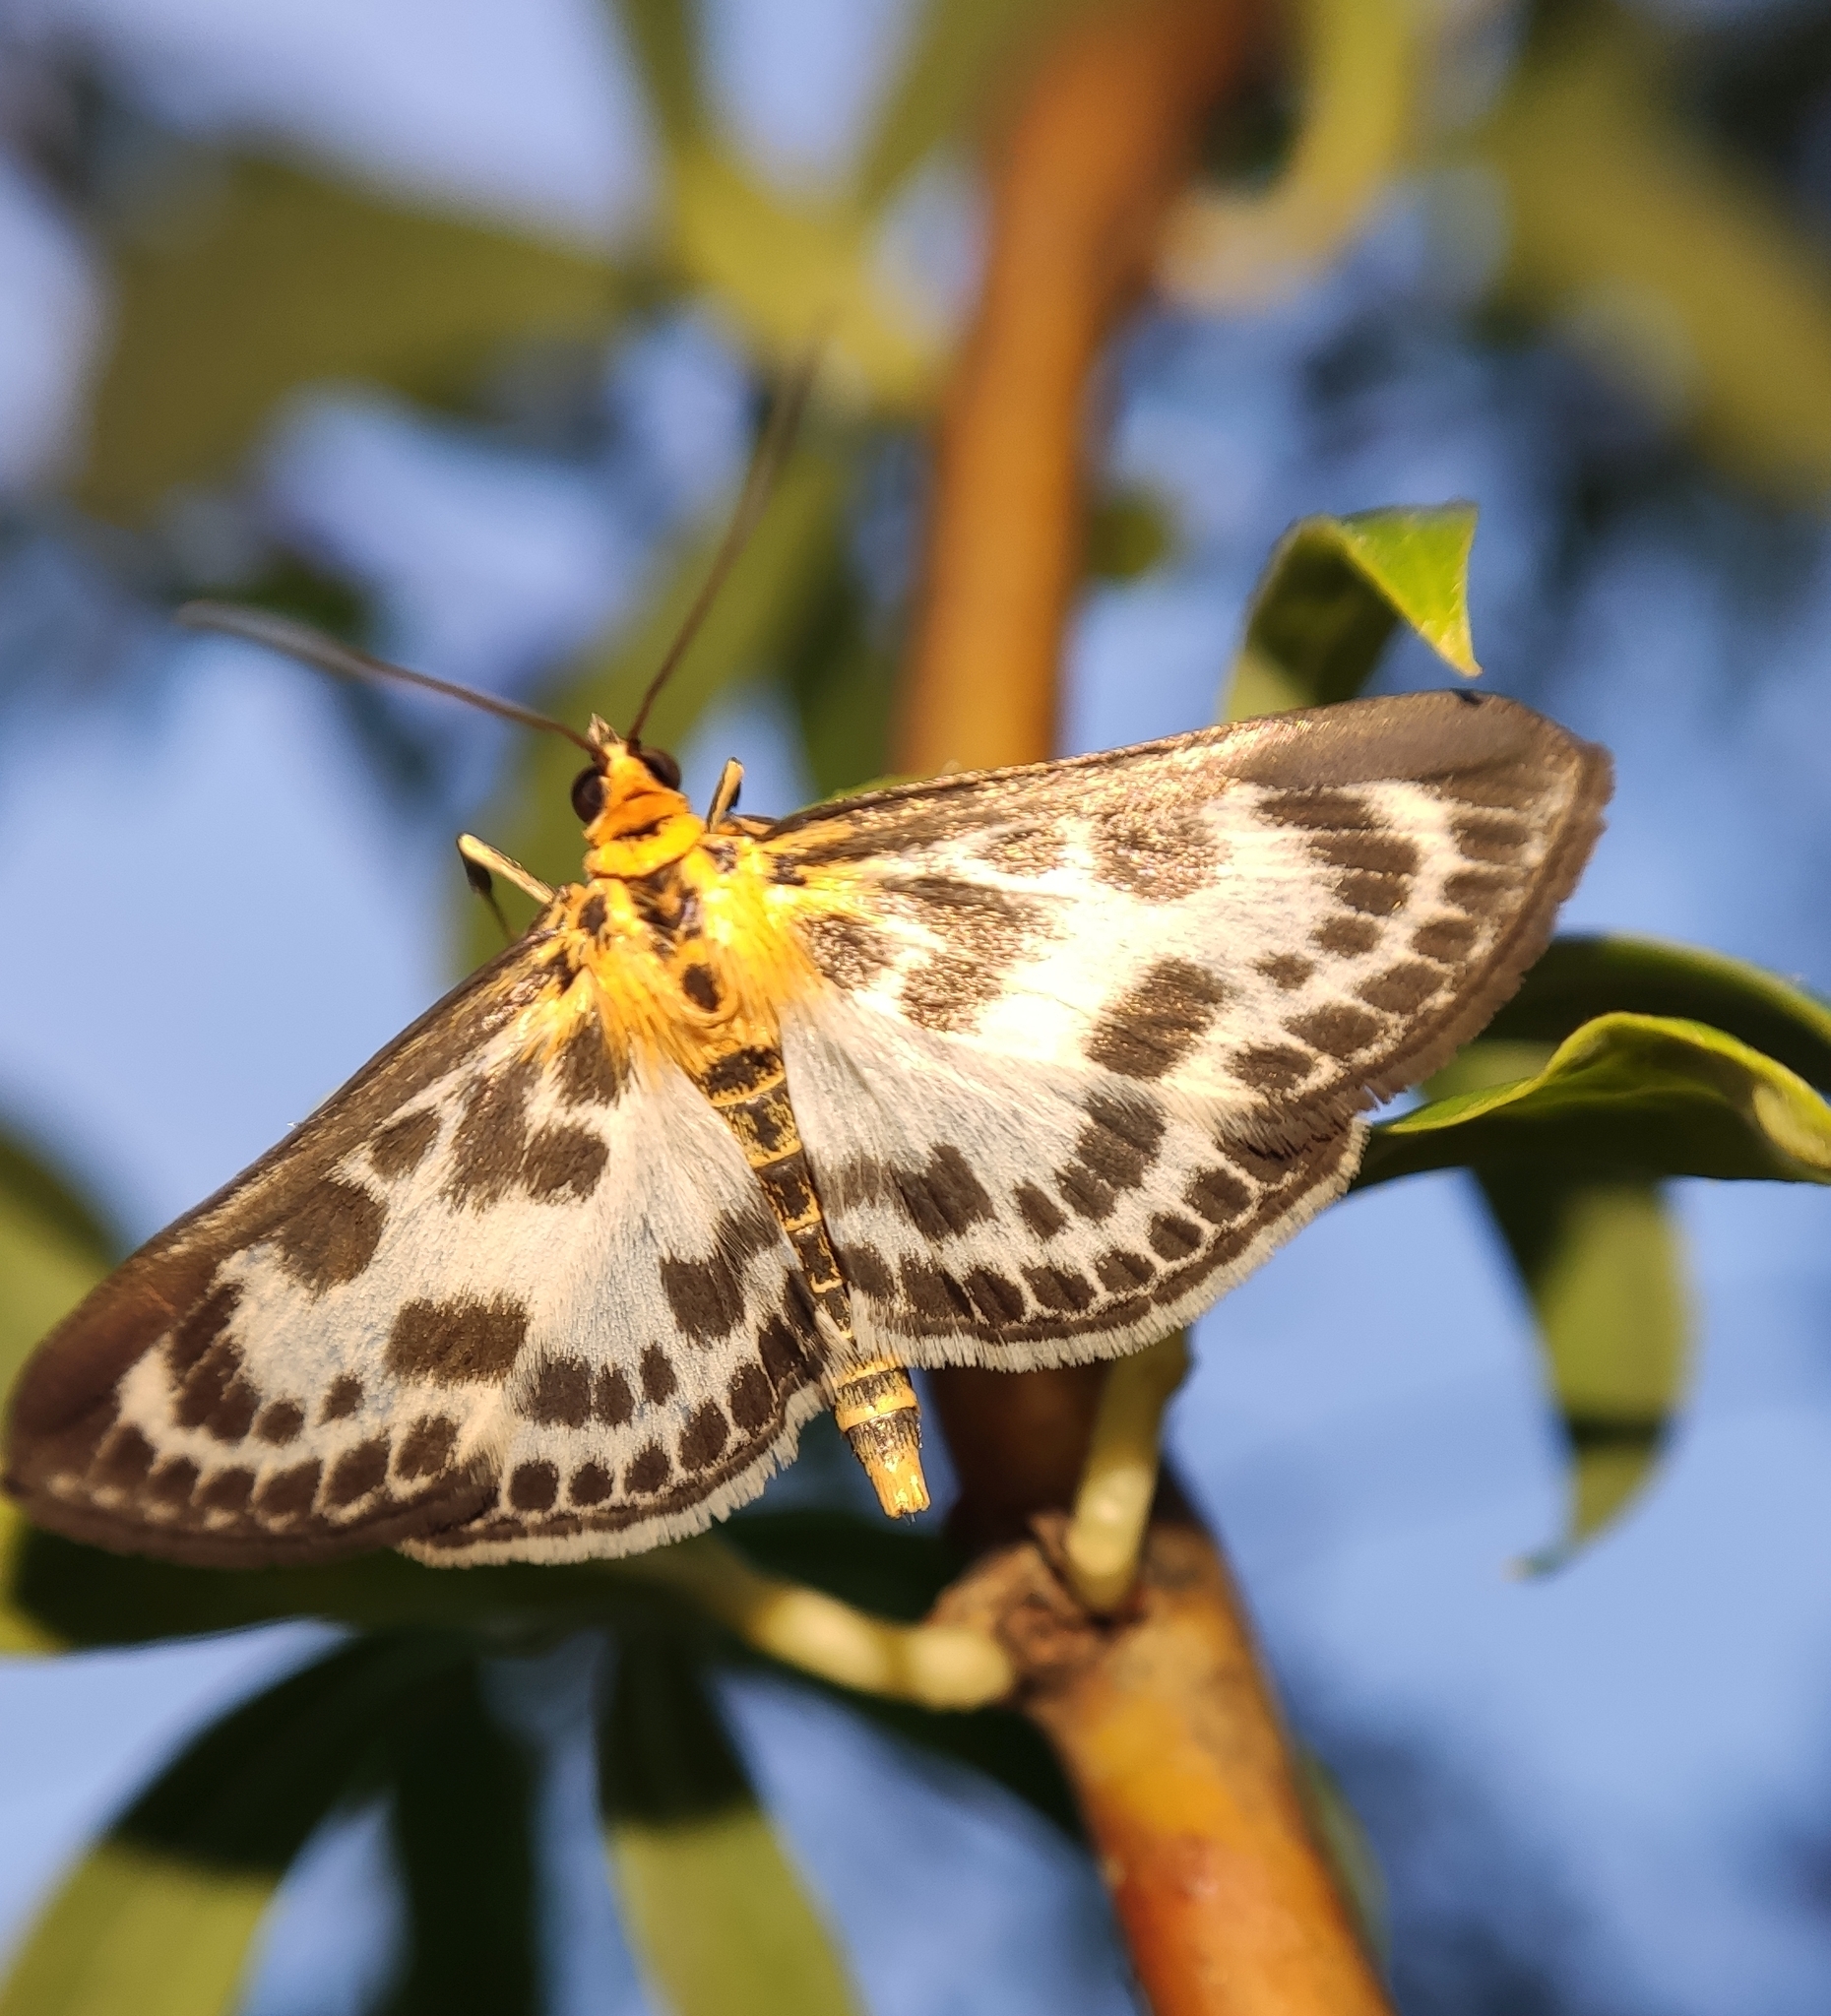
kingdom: Animalia
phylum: Arthropoda
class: Insecta
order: Lepidoptera
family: Crambidae
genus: Anania
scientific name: Anania hortulata
